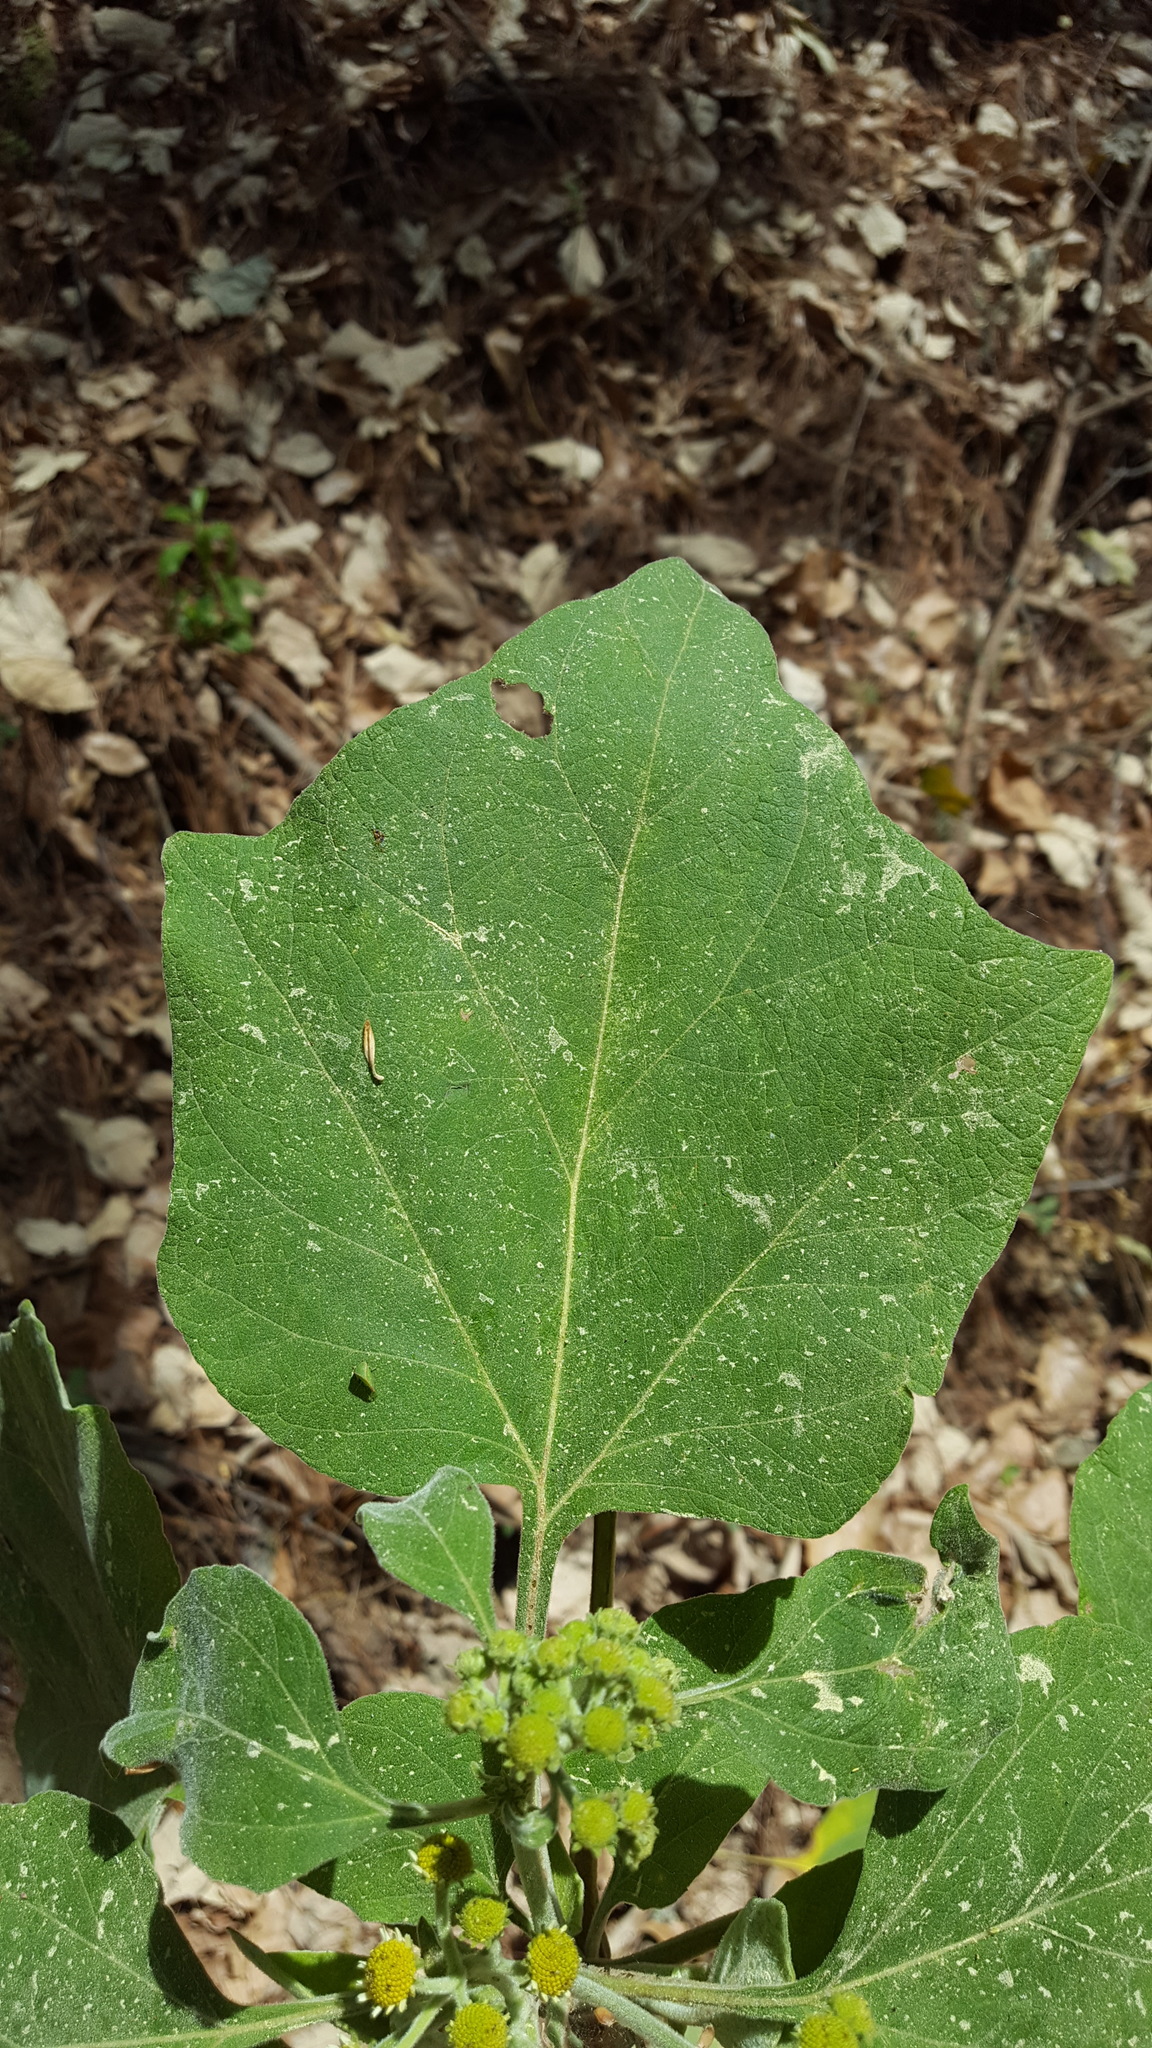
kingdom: Plantae
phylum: Tracheophyta
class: Magnoliopsida
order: Asterales
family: Asteraceae
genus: Podachaenium
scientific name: Podachaenium eminens
